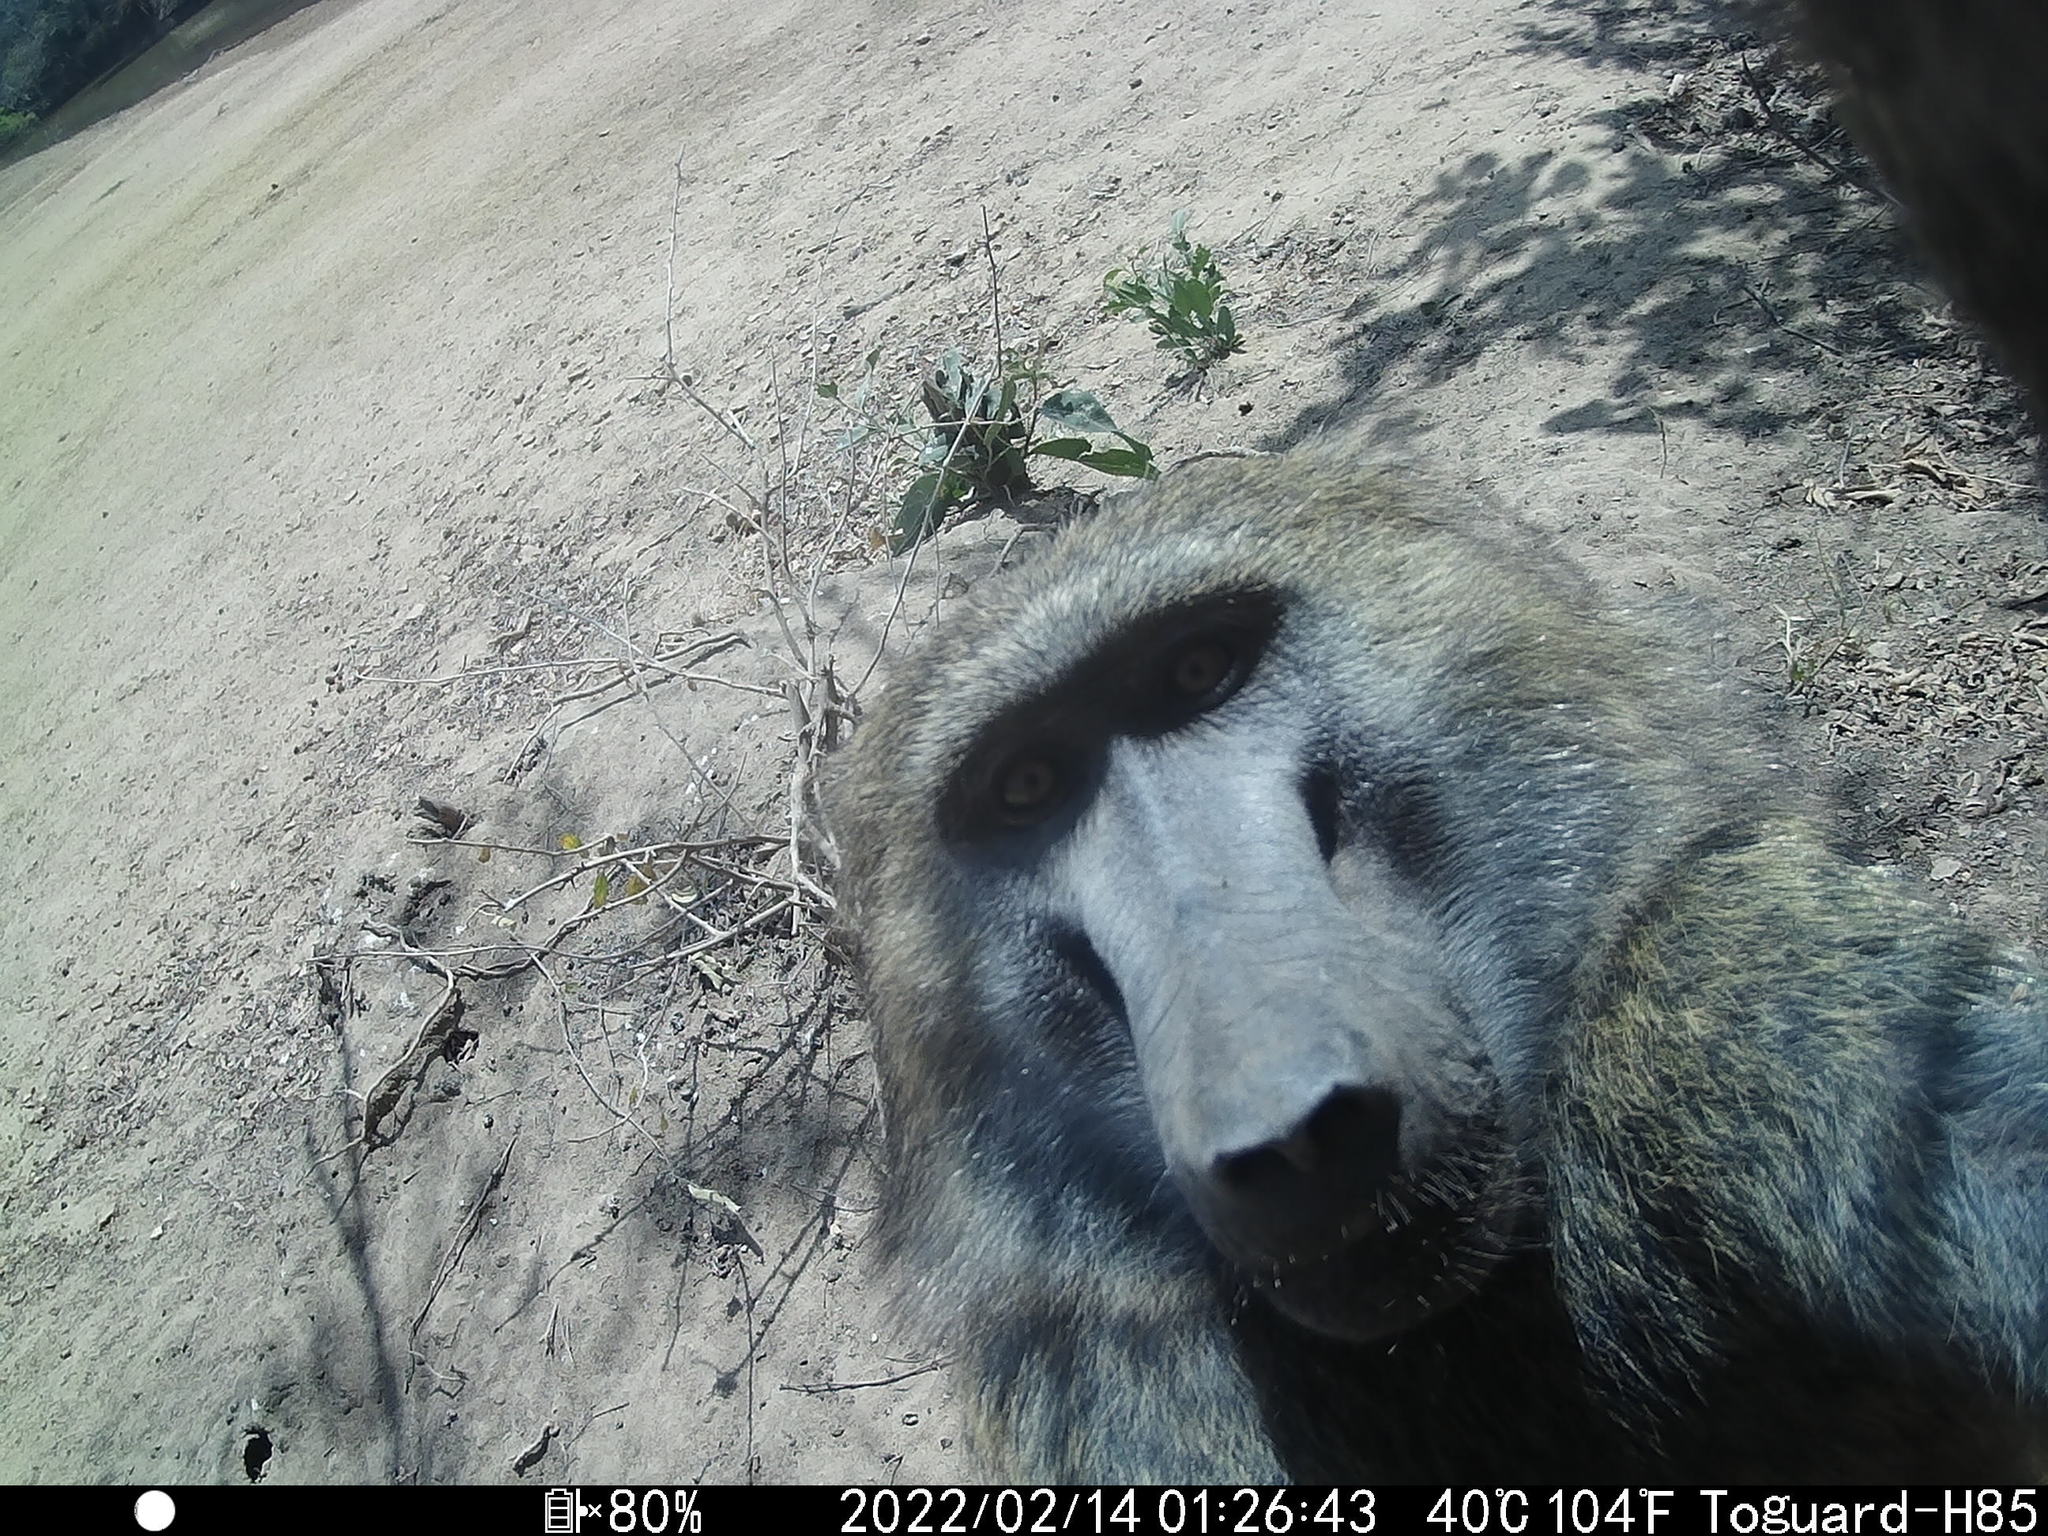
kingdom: Animalia
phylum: Chordata
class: Mammalia
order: Primates
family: Cercopithecidae
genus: Papio
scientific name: Papio anubis
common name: Olive baboon
